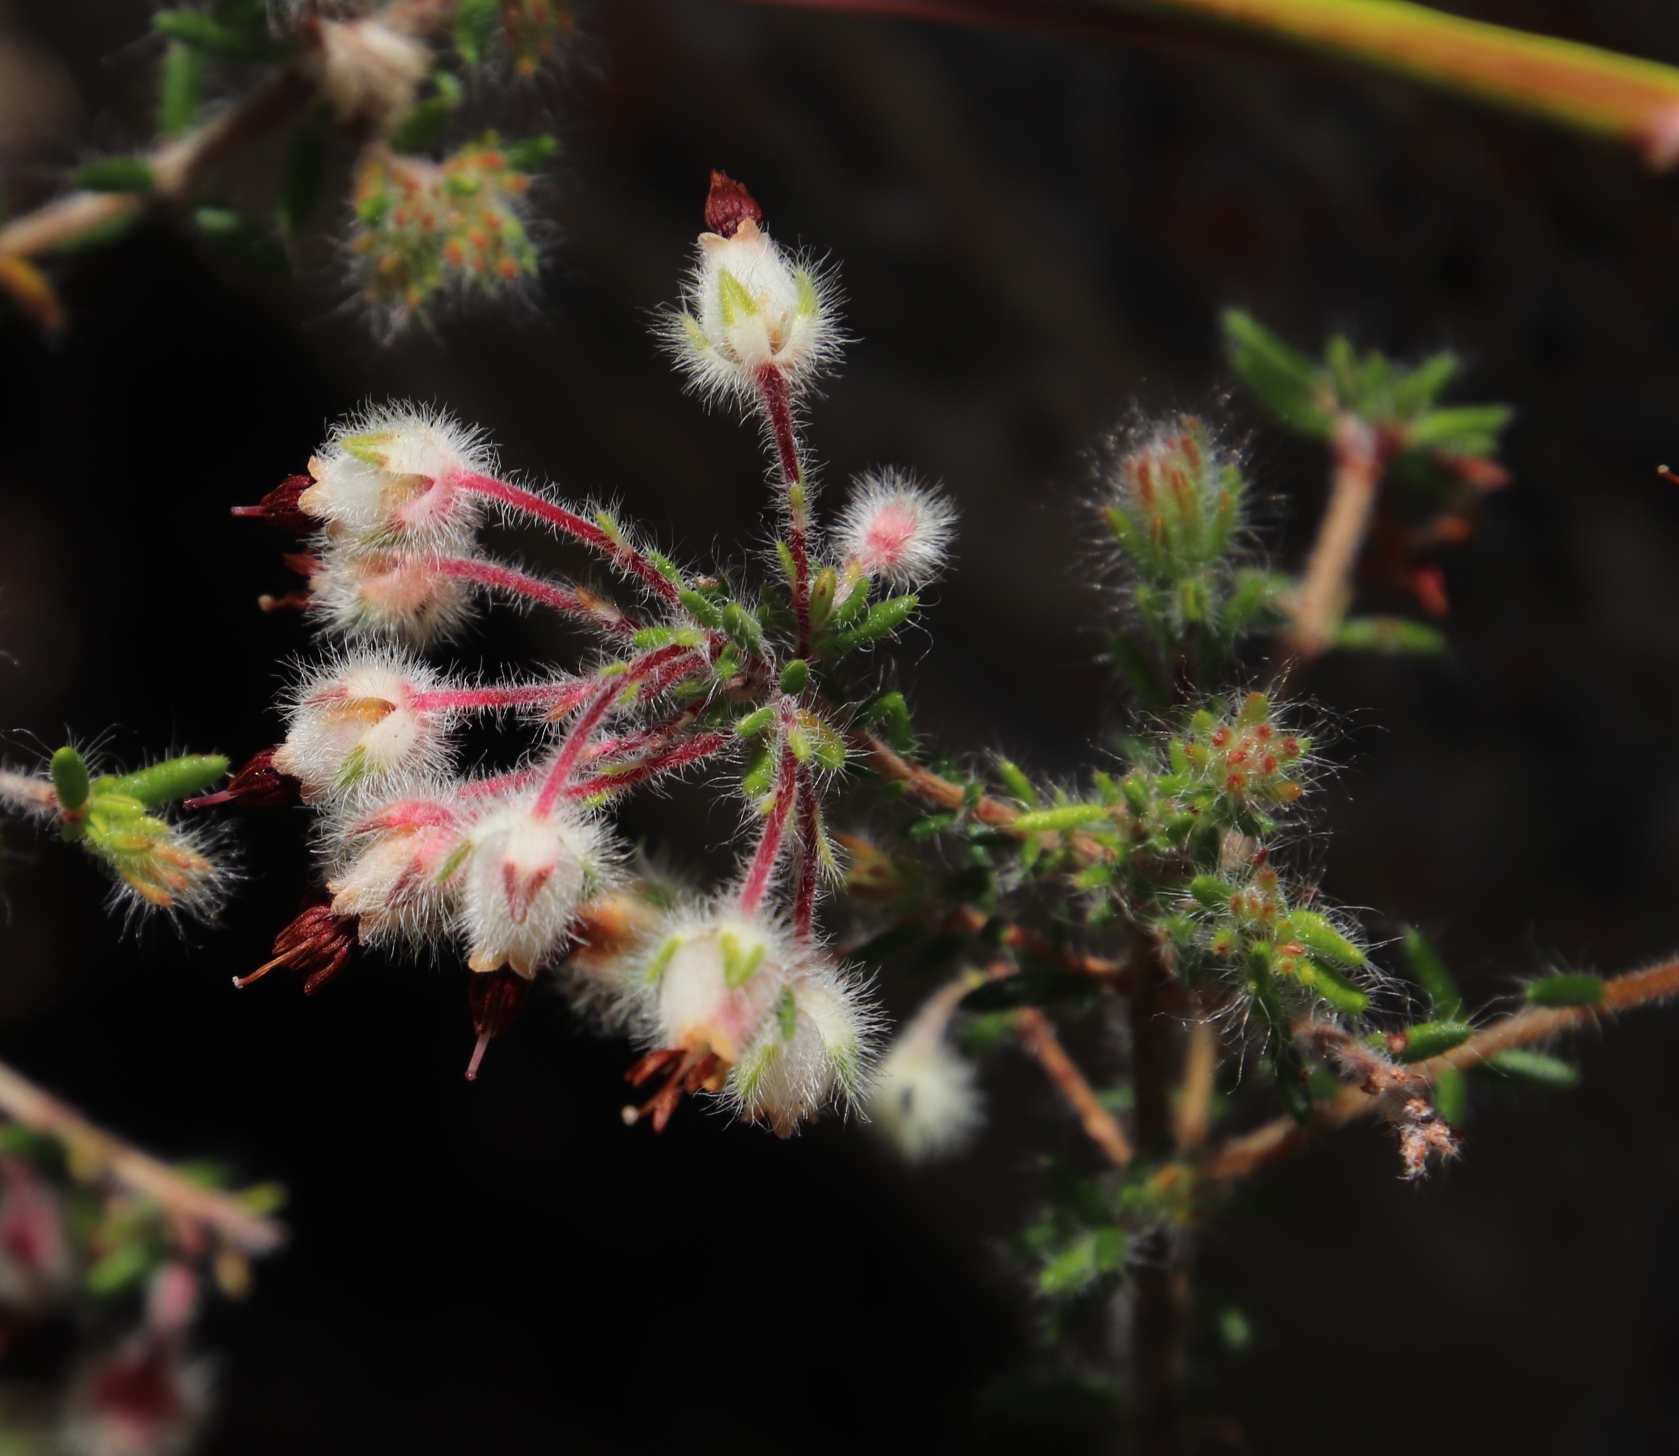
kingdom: Plantae
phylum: Tracheophyta
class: Magnoliopsida
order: Ericales
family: Ericaceae
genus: Erica
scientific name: Erica villosa
